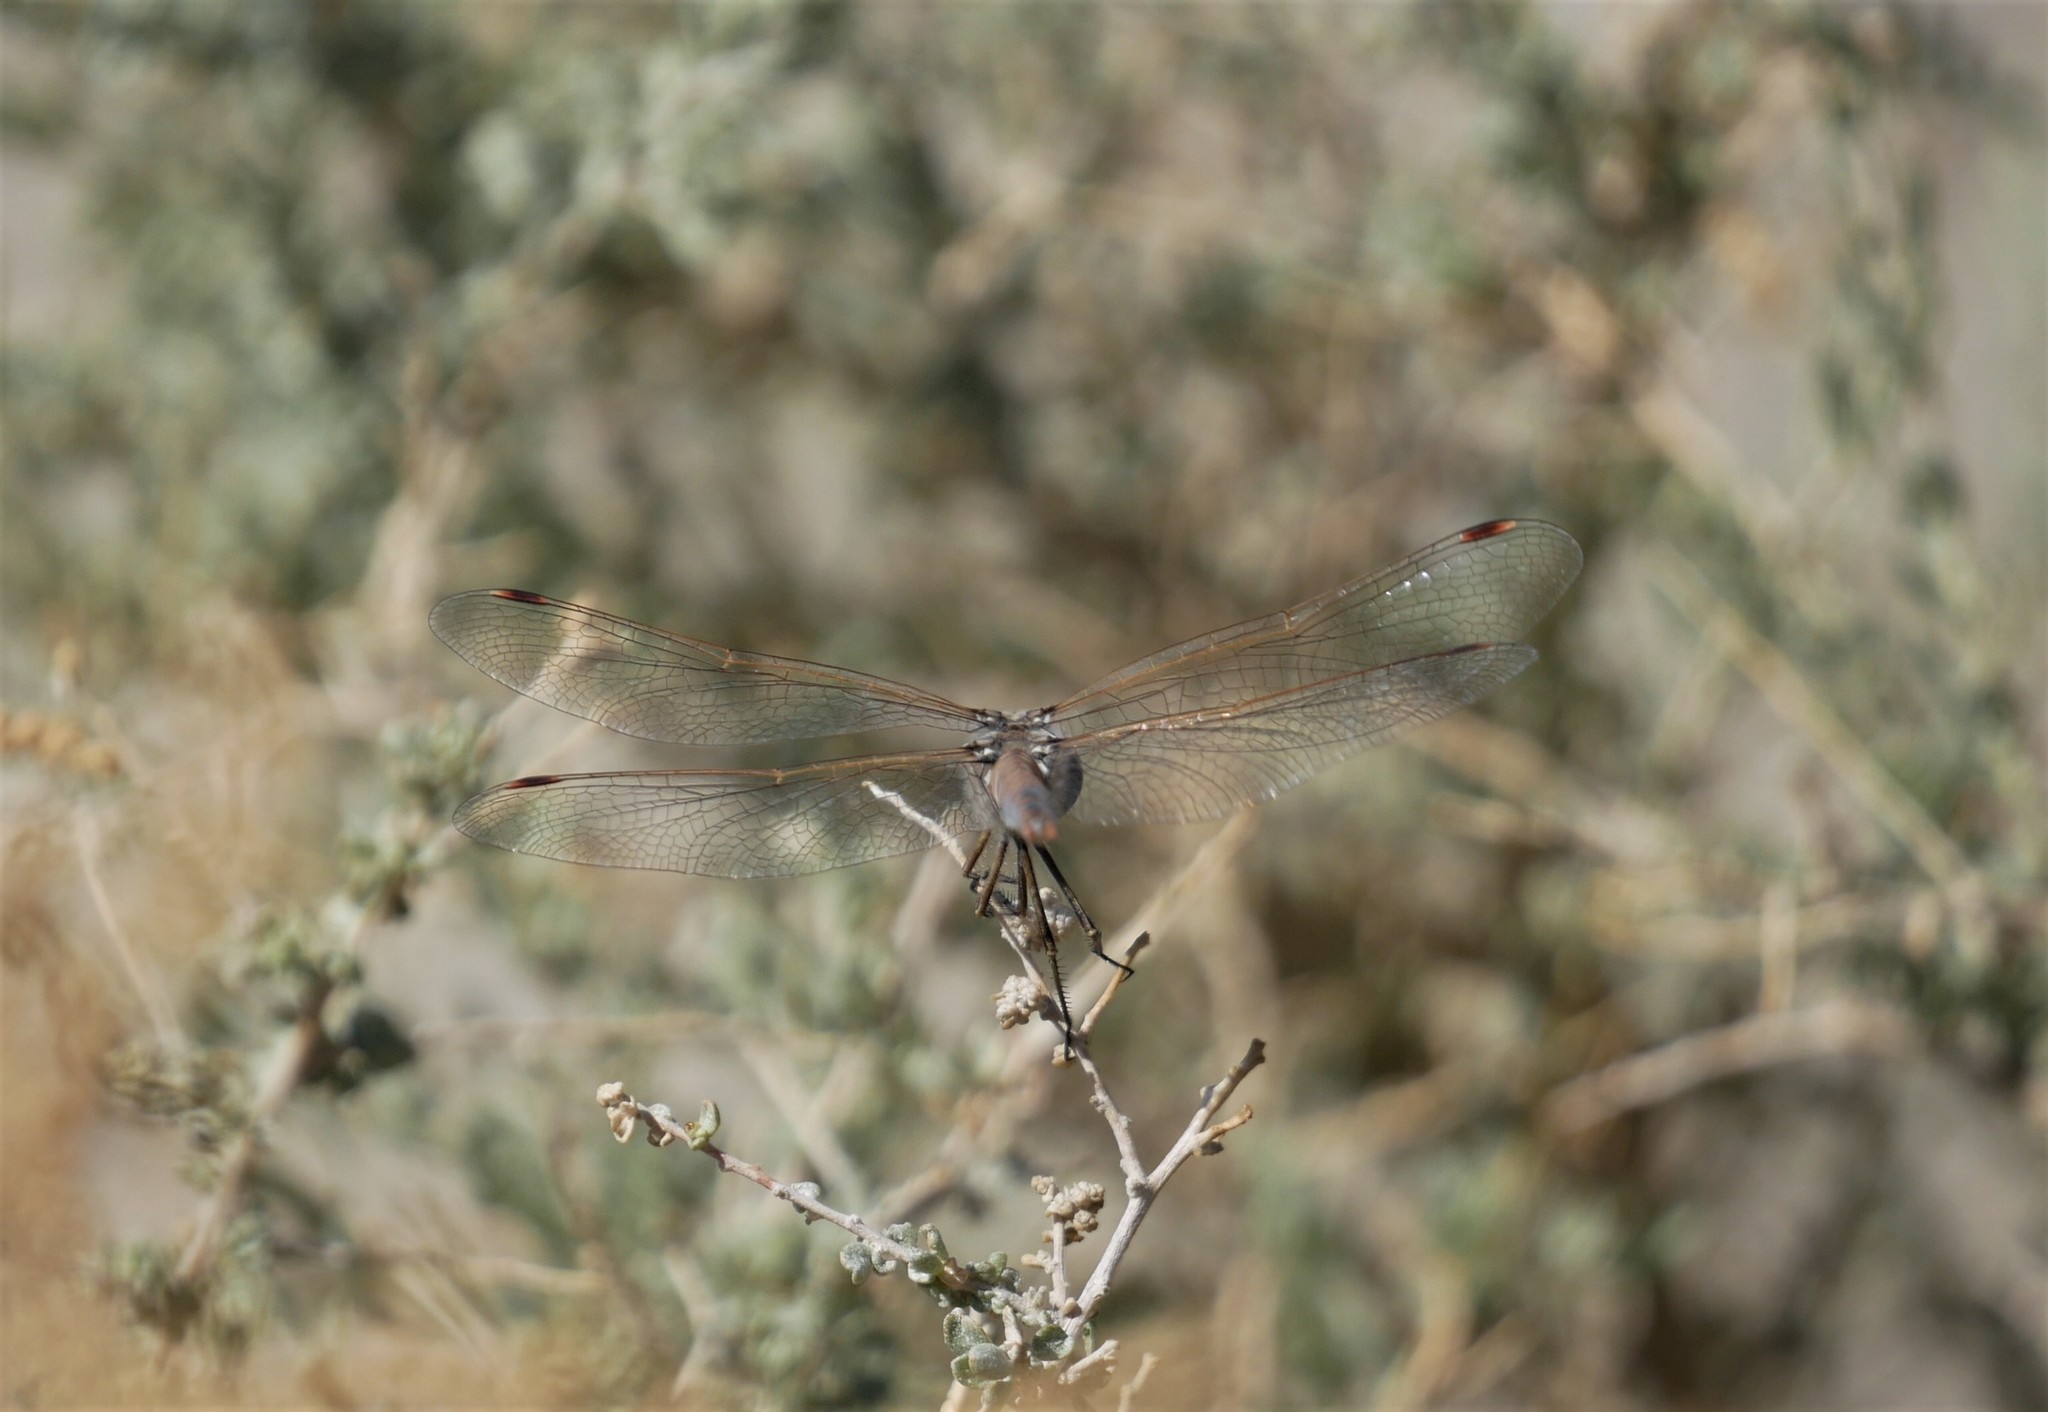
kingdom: Animalia
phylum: Arthropoda
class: Insecta
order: Odonata
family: Libellulidae
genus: Sympetrum
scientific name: Sympetrum corruptum
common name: Variegated meadowhawk
